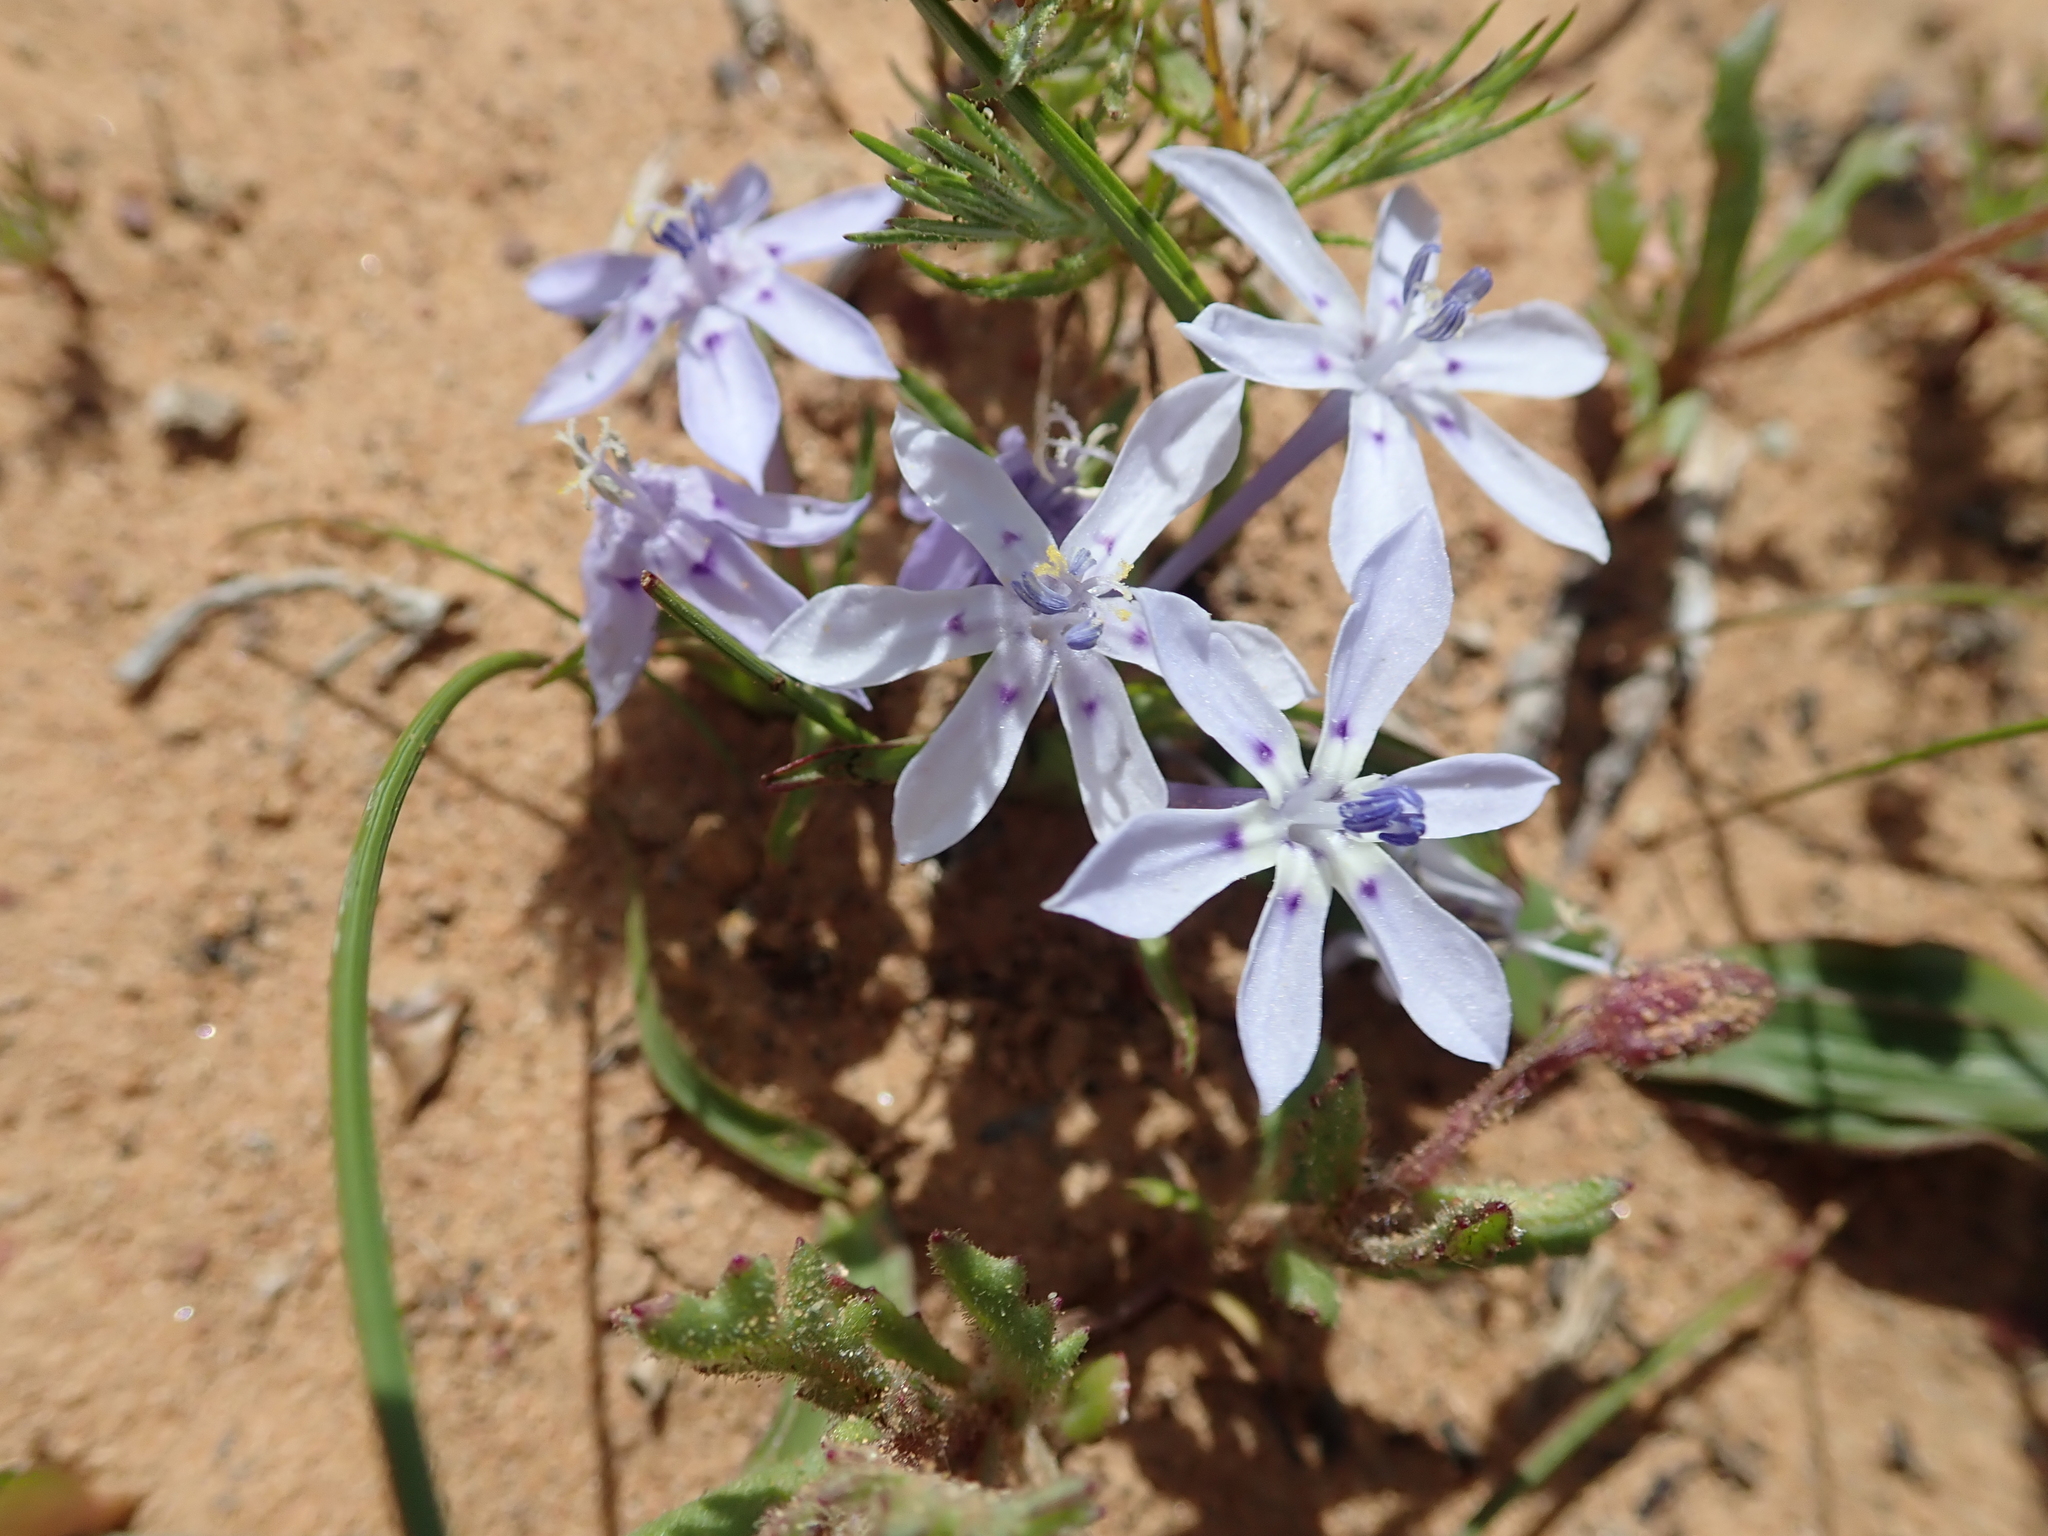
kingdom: Plantae
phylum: Tracheophyta
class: Liliopsida
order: Asparagales
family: Iridaceae
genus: Lapeirousia
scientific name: Lapeirousia plicata
